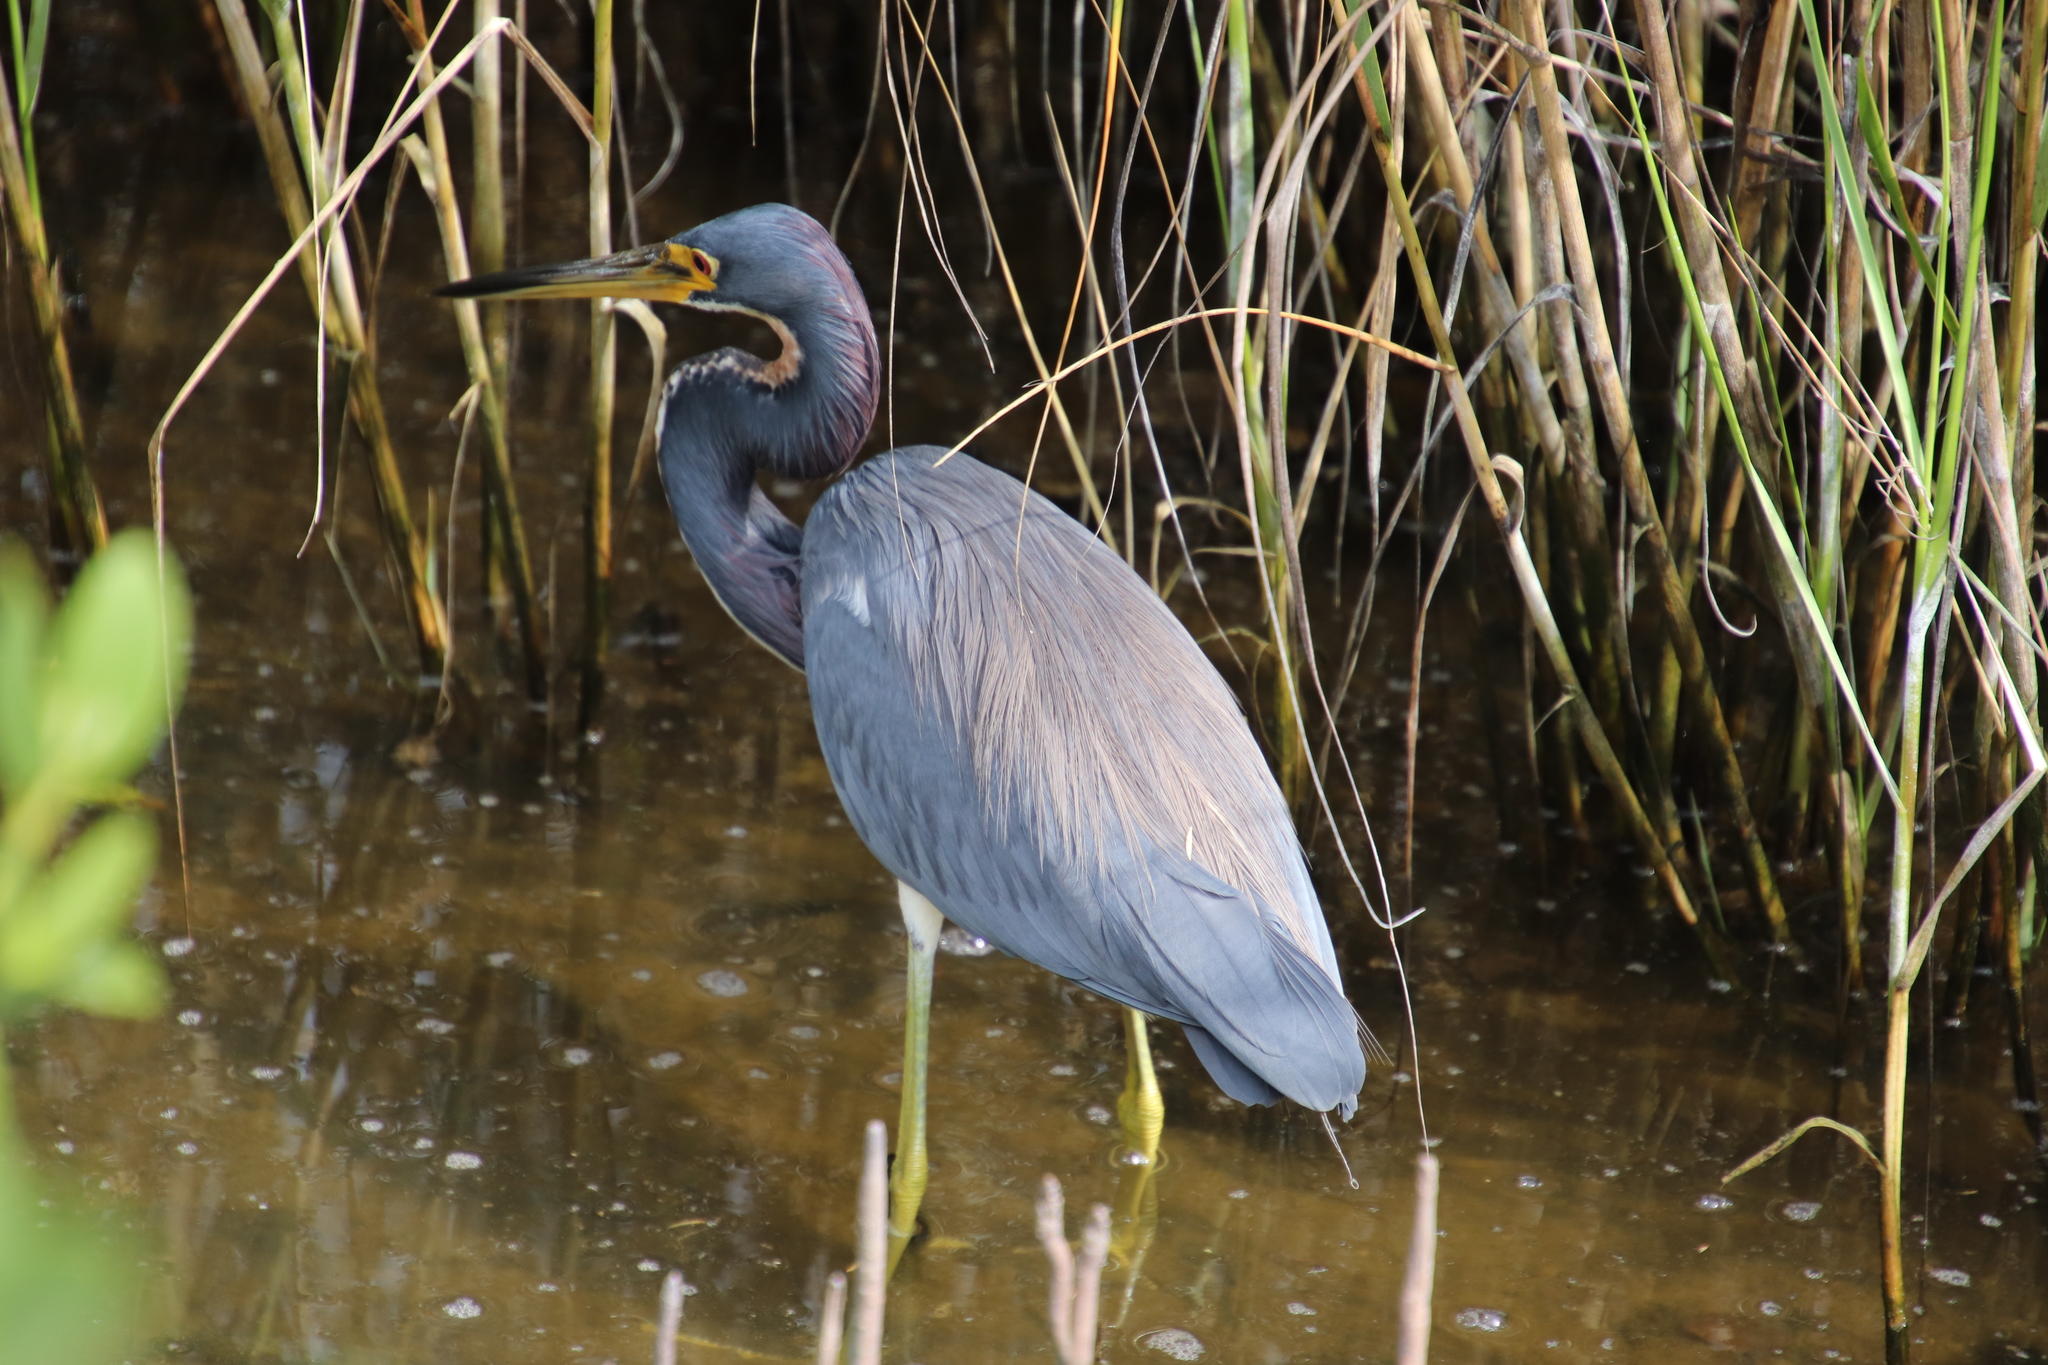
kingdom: Animalia
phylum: Chordata
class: Aves
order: Pelecaniformes
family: Ardeidae
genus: Egretta
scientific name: Egretta tricolor
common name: Tricolored heron
